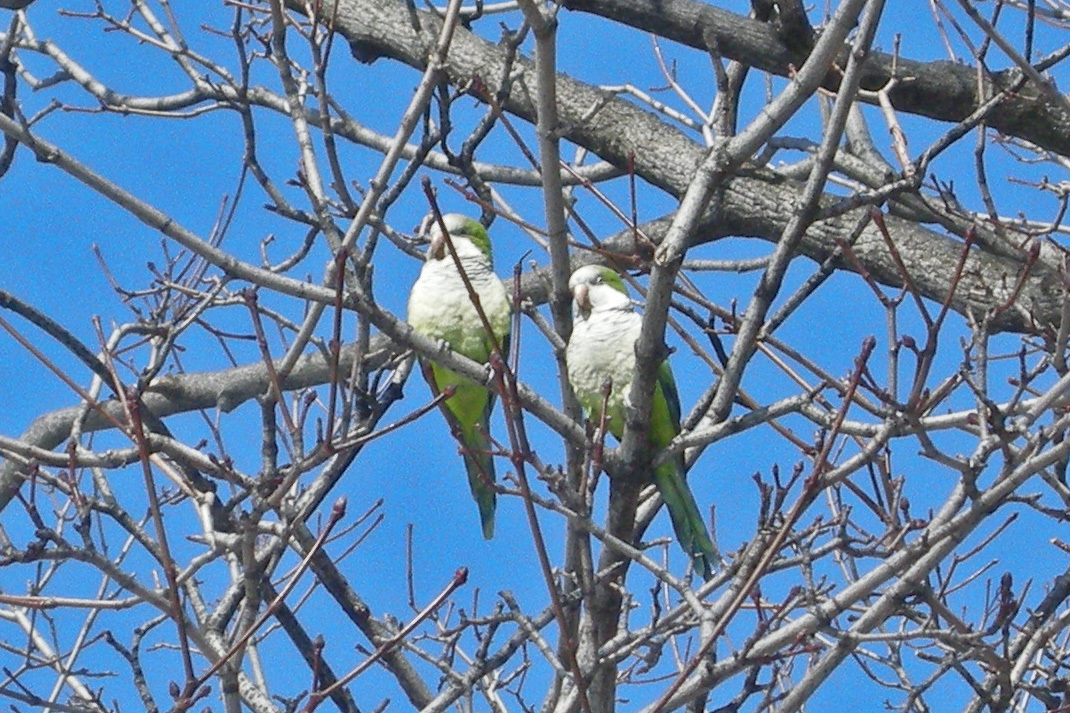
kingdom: Animalia
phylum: Chordata
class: Aves
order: Psittaciformes
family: Psittacidae
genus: Myiopsitta
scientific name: Myiopsitta monachus
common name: Monk parakeet
